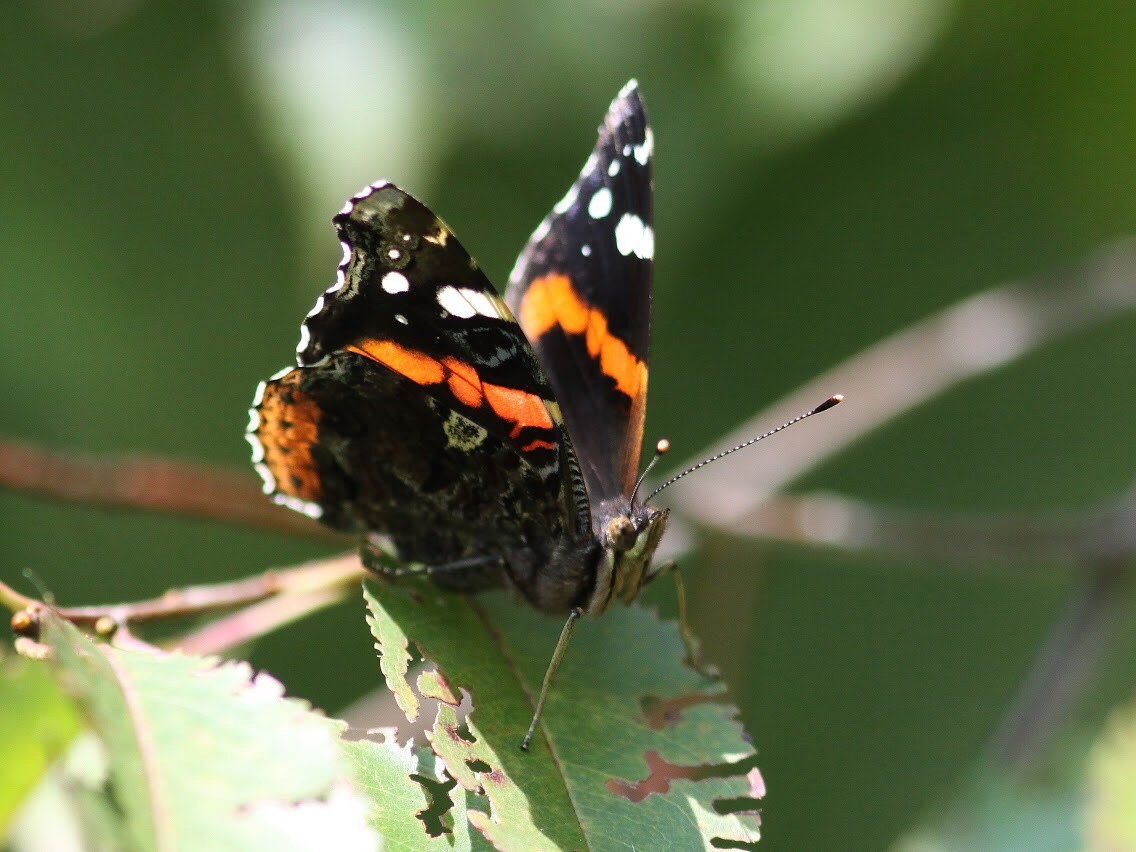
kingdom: Animalia
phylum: Arthropoda
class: Insecta
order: Lepidoptera
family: Nymphalidae
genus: Vanessa
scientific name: Vanessa atalanta
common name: Red admiral
